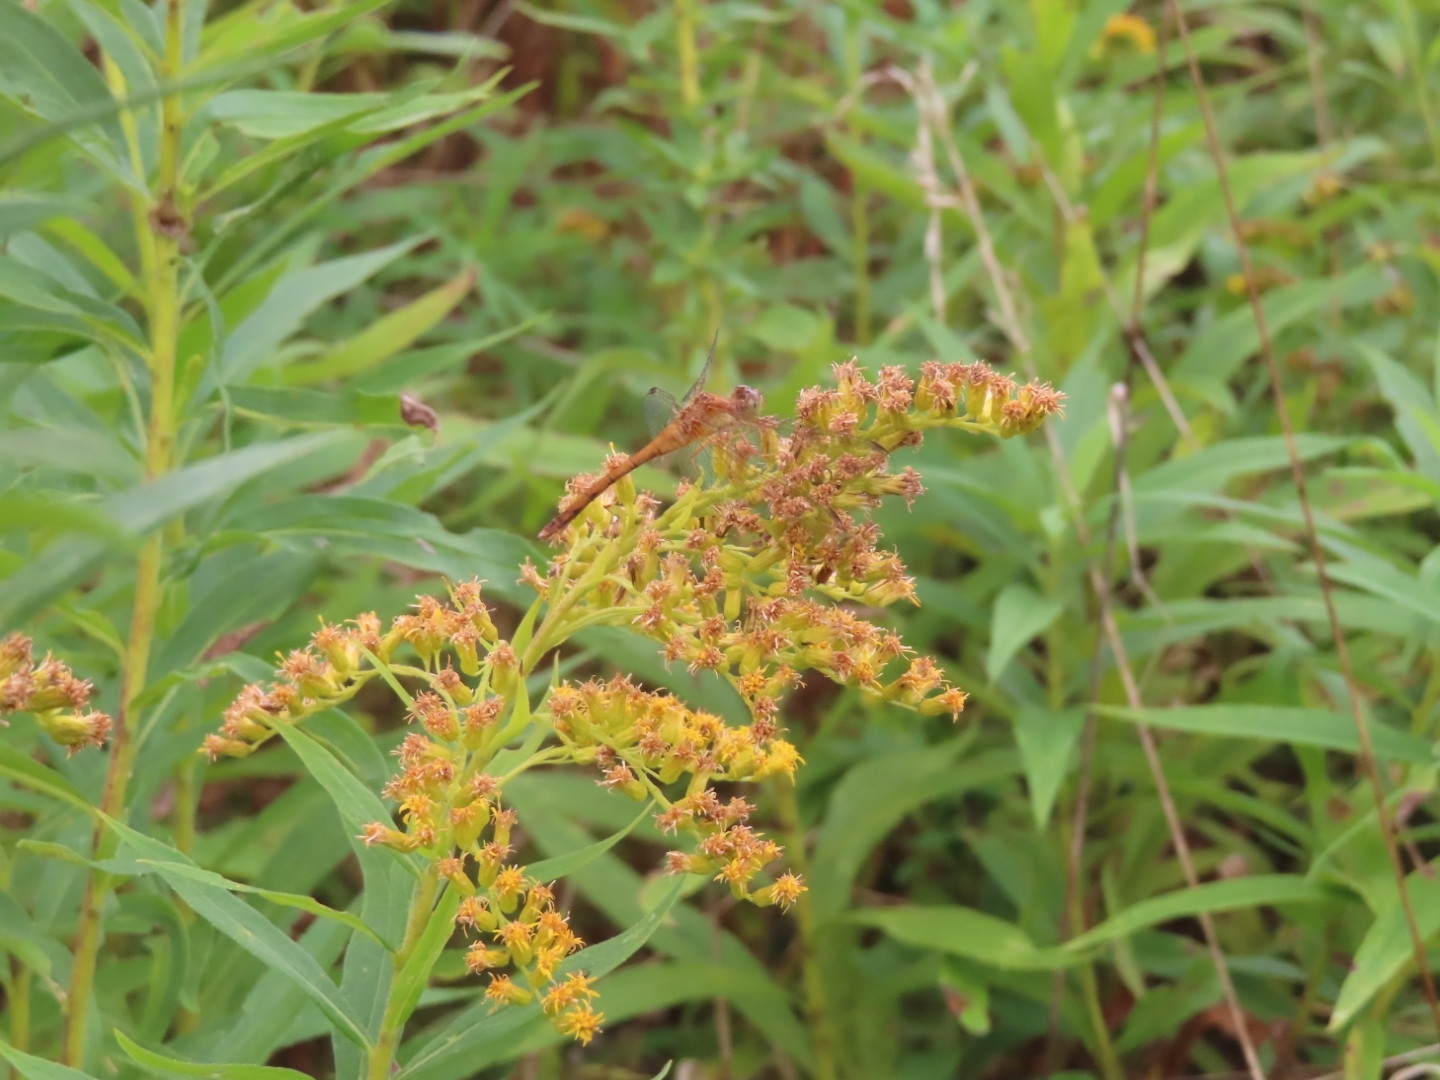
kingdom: Animalia
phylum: Arthropoda
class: Insecta
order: Odonata
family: Libellulidae
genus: Sympetrum
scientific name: Sympetrum vicinum
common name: Autumn meadowhawk
